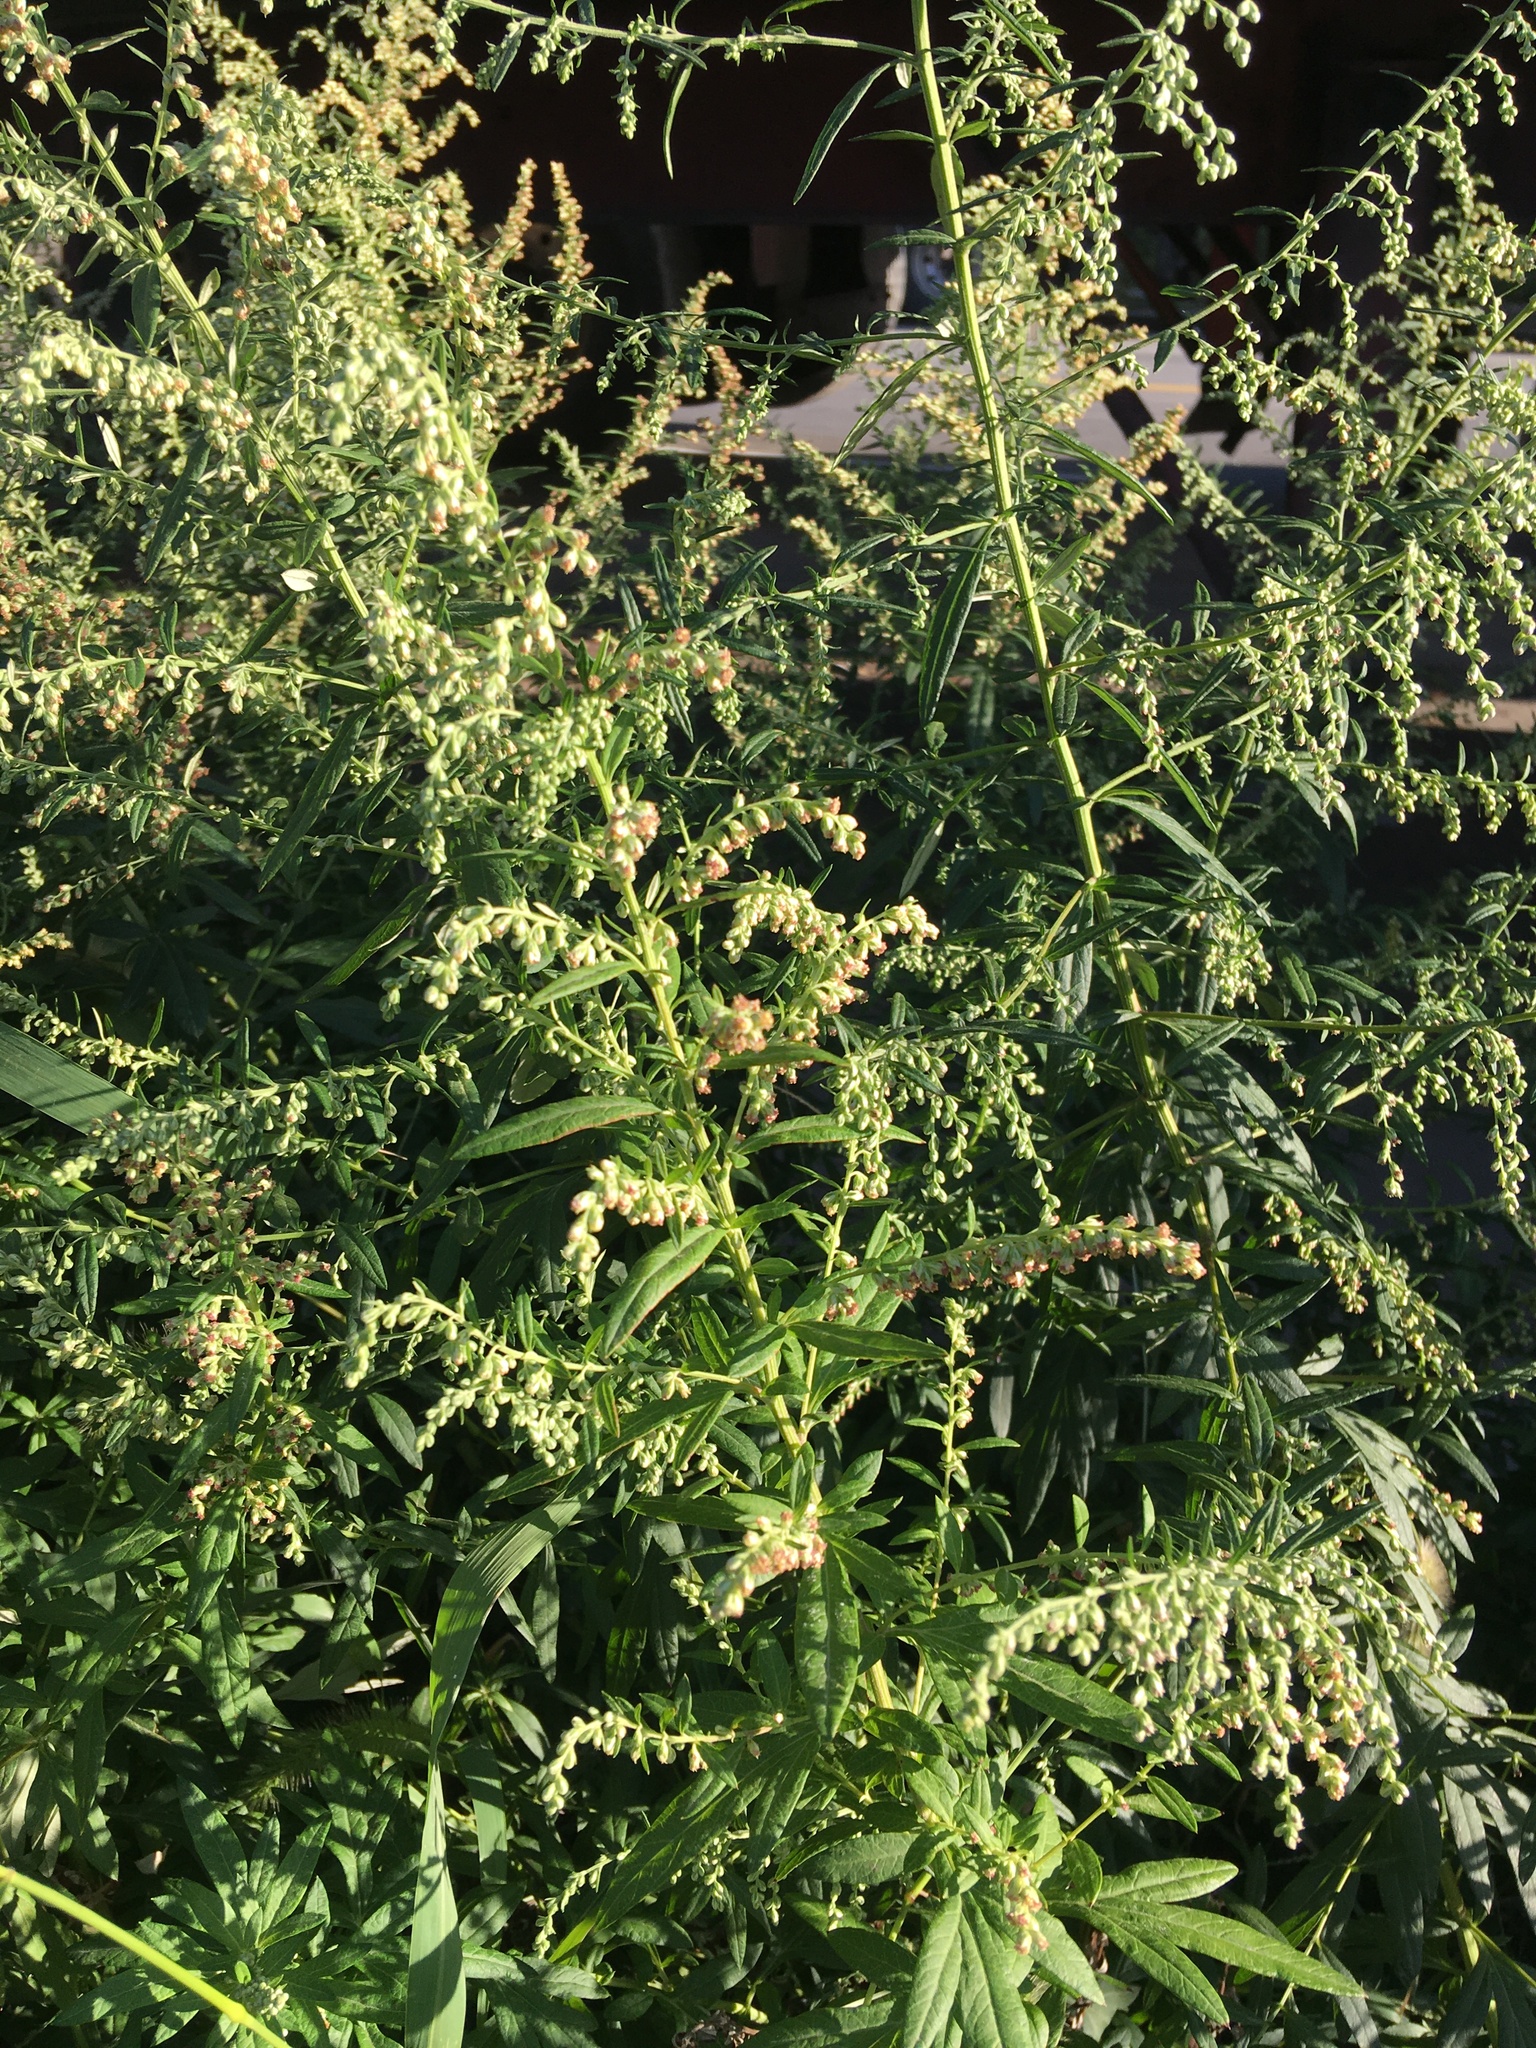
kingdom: Plantae
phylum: Tracheophyta
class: Magnoliopsida
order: Asterales
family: Asteraceae
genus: Artemisia
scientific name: Artemisia vulgaris
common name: Mugwort
